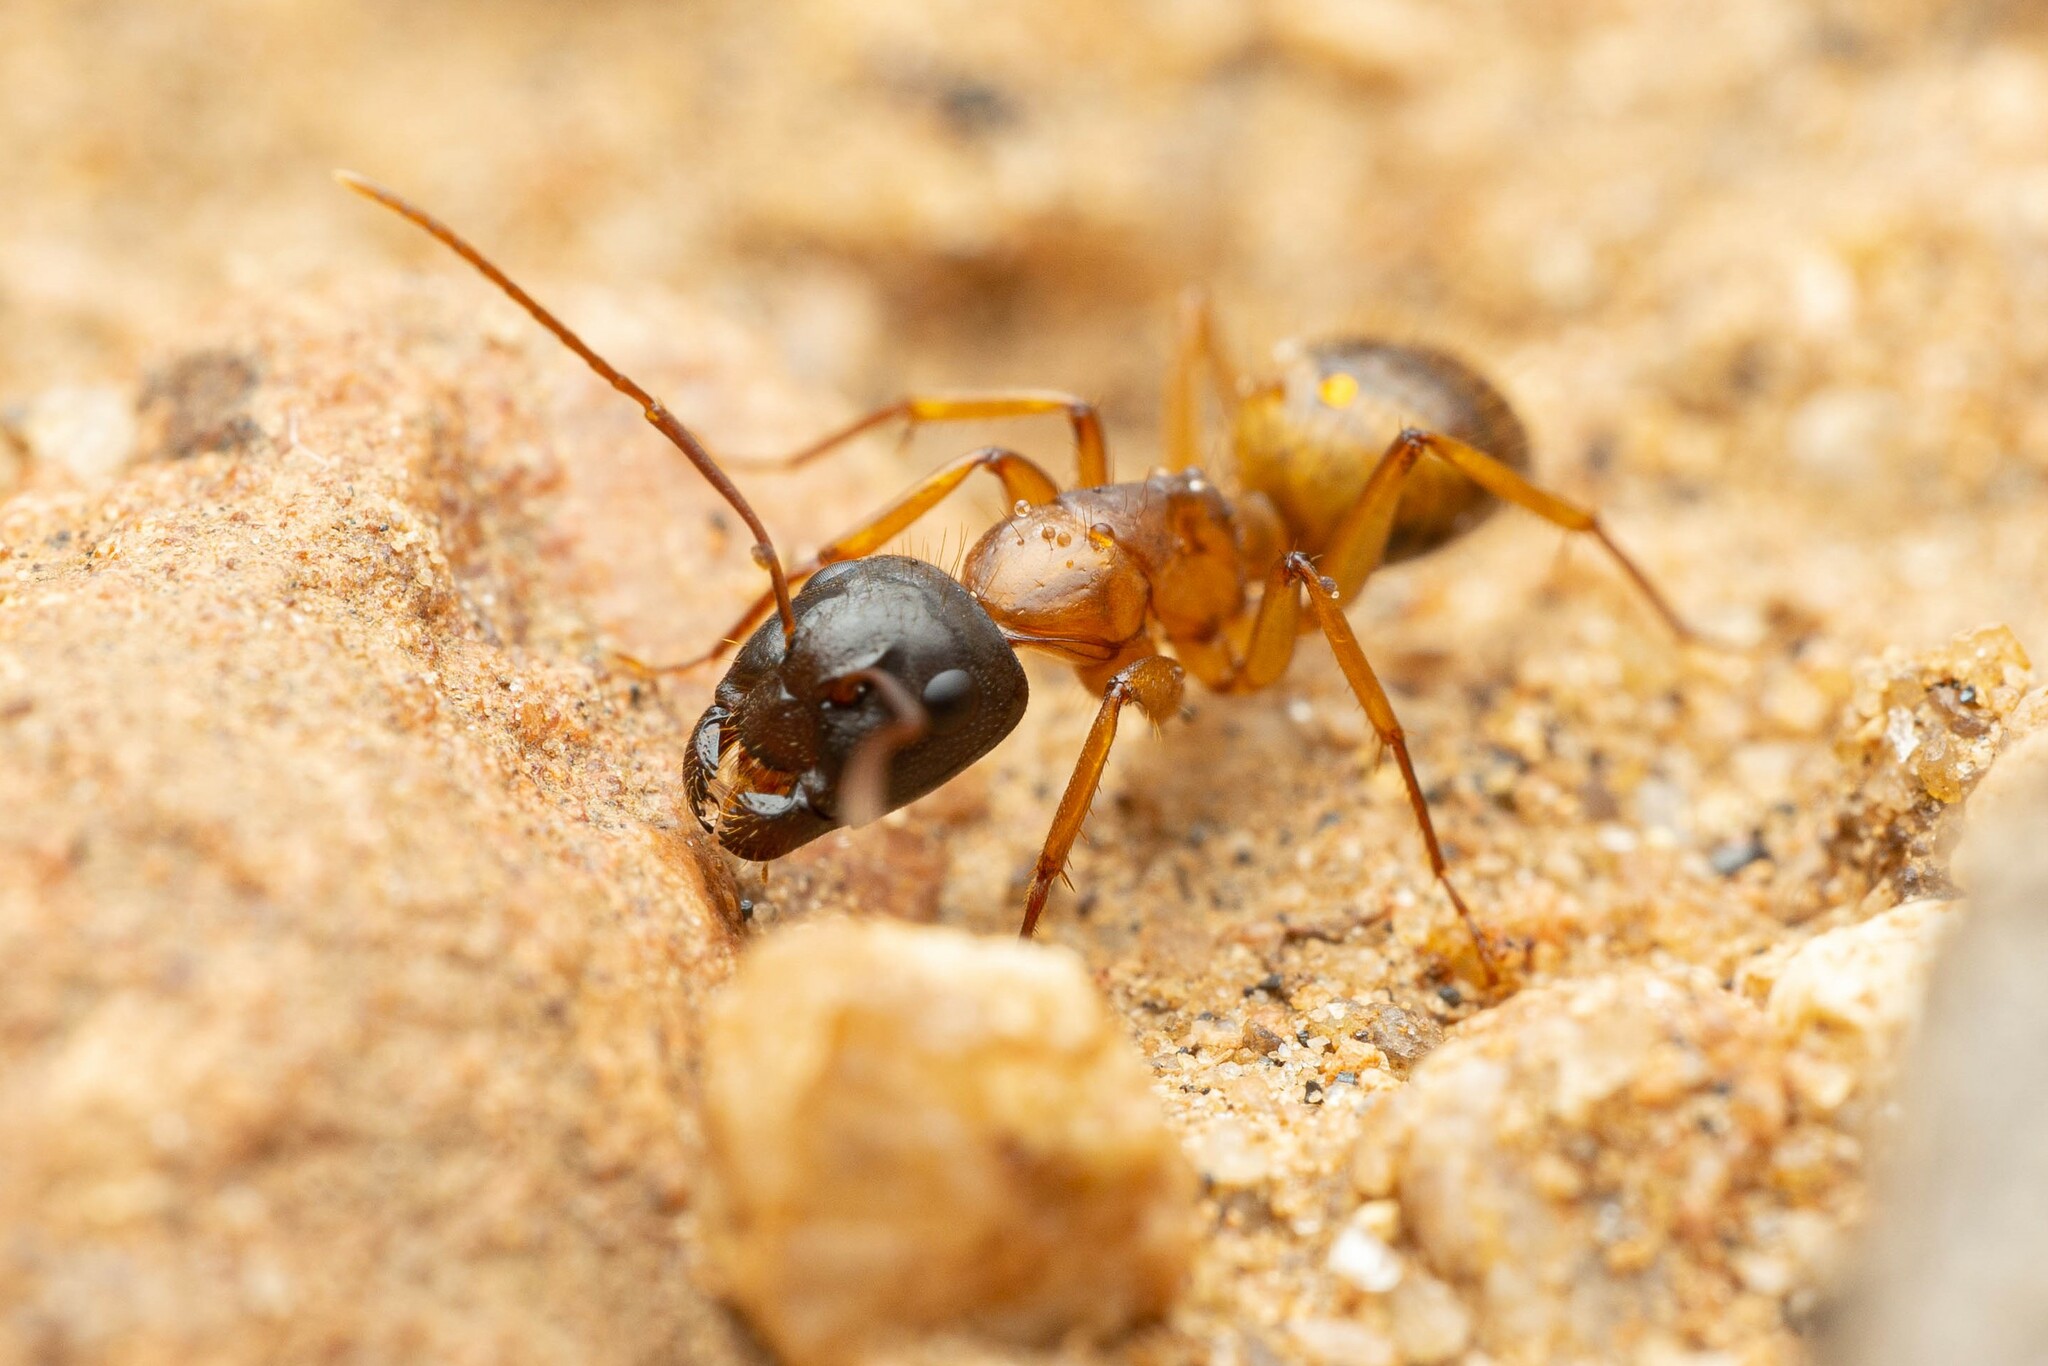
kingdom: Animalia
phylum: Arthropoda
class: Insecta
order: Hymenoptera
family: Formicidae
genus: Camponotus
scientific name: Camponotus sansabeanus
